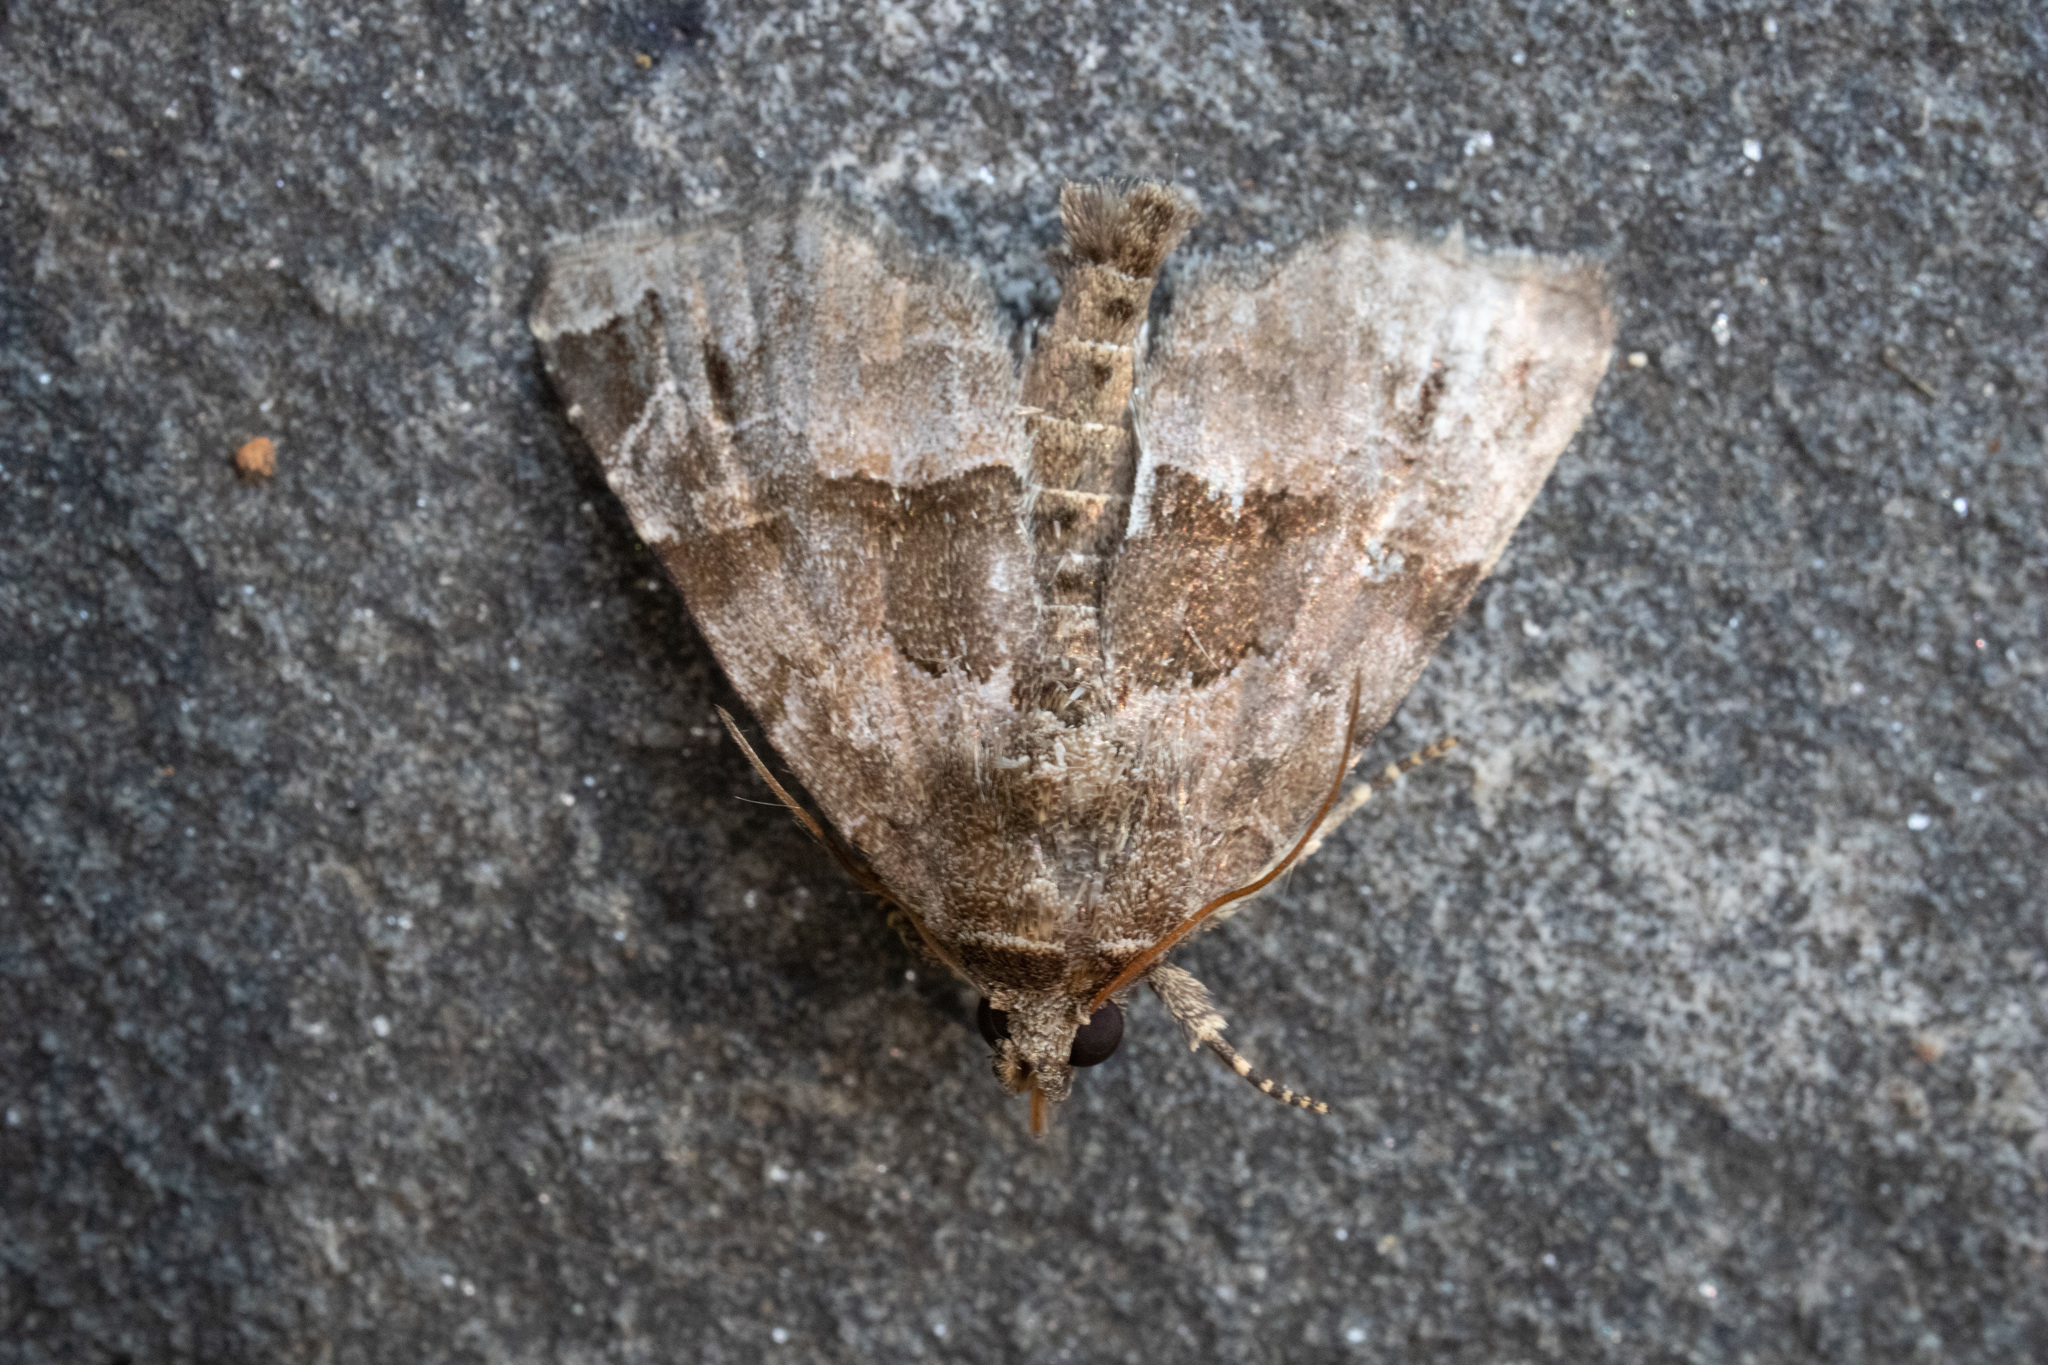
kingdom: Animalia
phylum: Arthropoda
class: Insecta
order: Lepidoptera
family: Noctuidae
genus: Niphonyx
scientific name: Niphonyx segregata
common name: Hops angleshade moth
